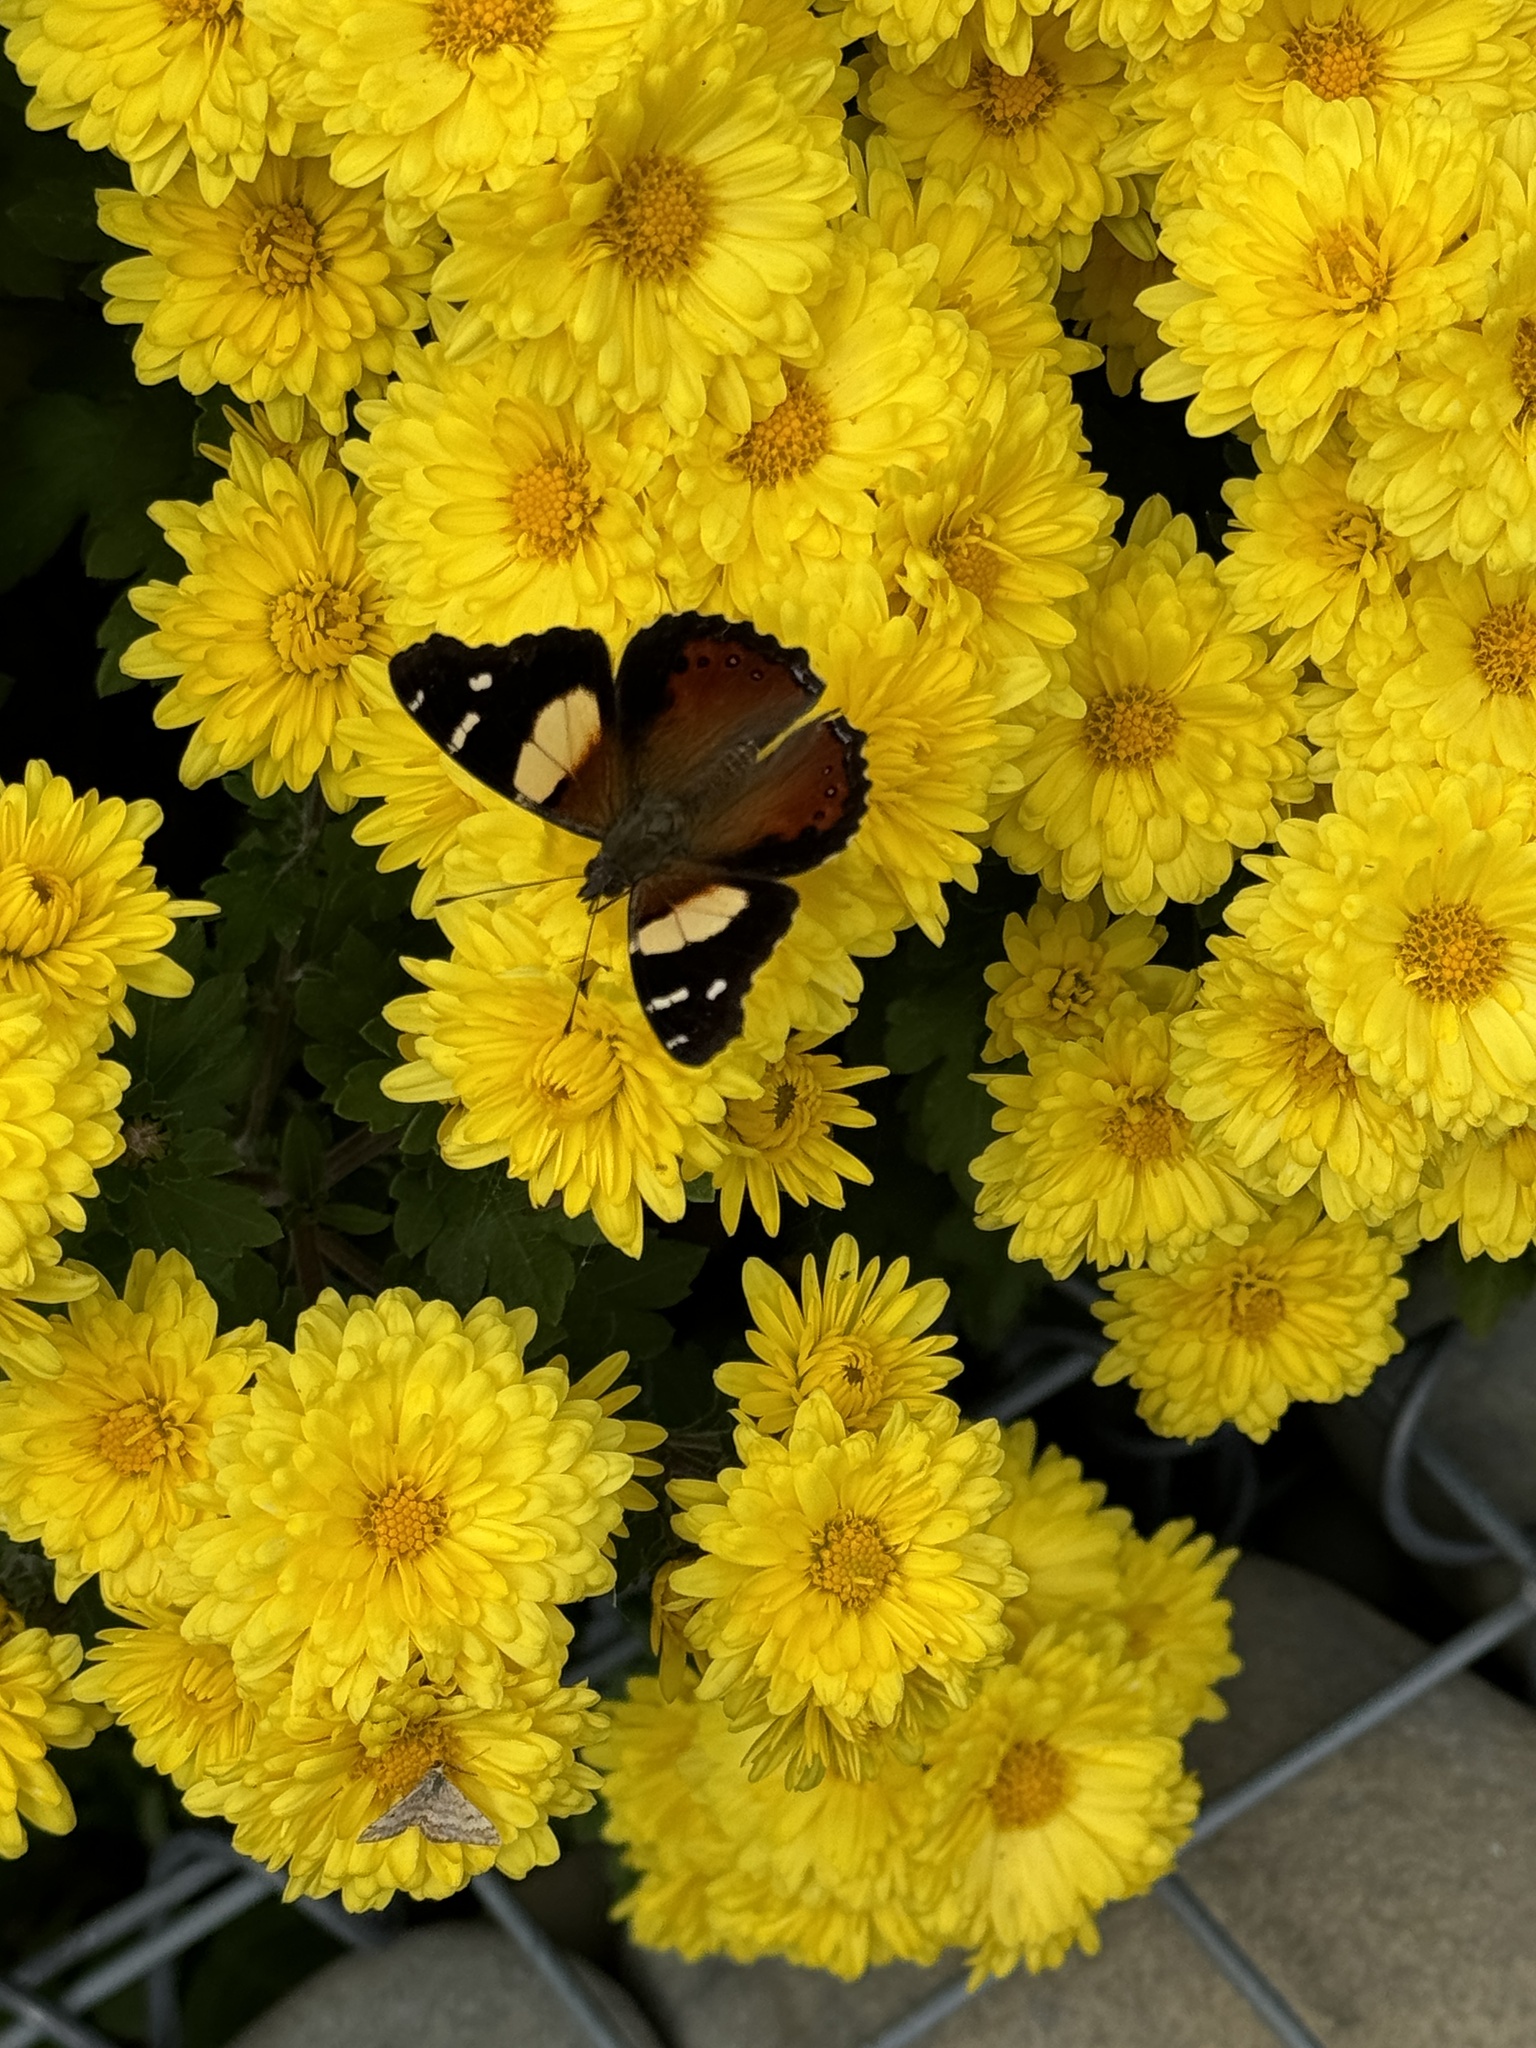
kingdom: Animalia
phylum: Arthropoda
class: Insecta
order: Lepidoptera
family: Nymphalidae
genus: Vanessa
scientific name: Vanessa itea
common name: Yellow admiral
